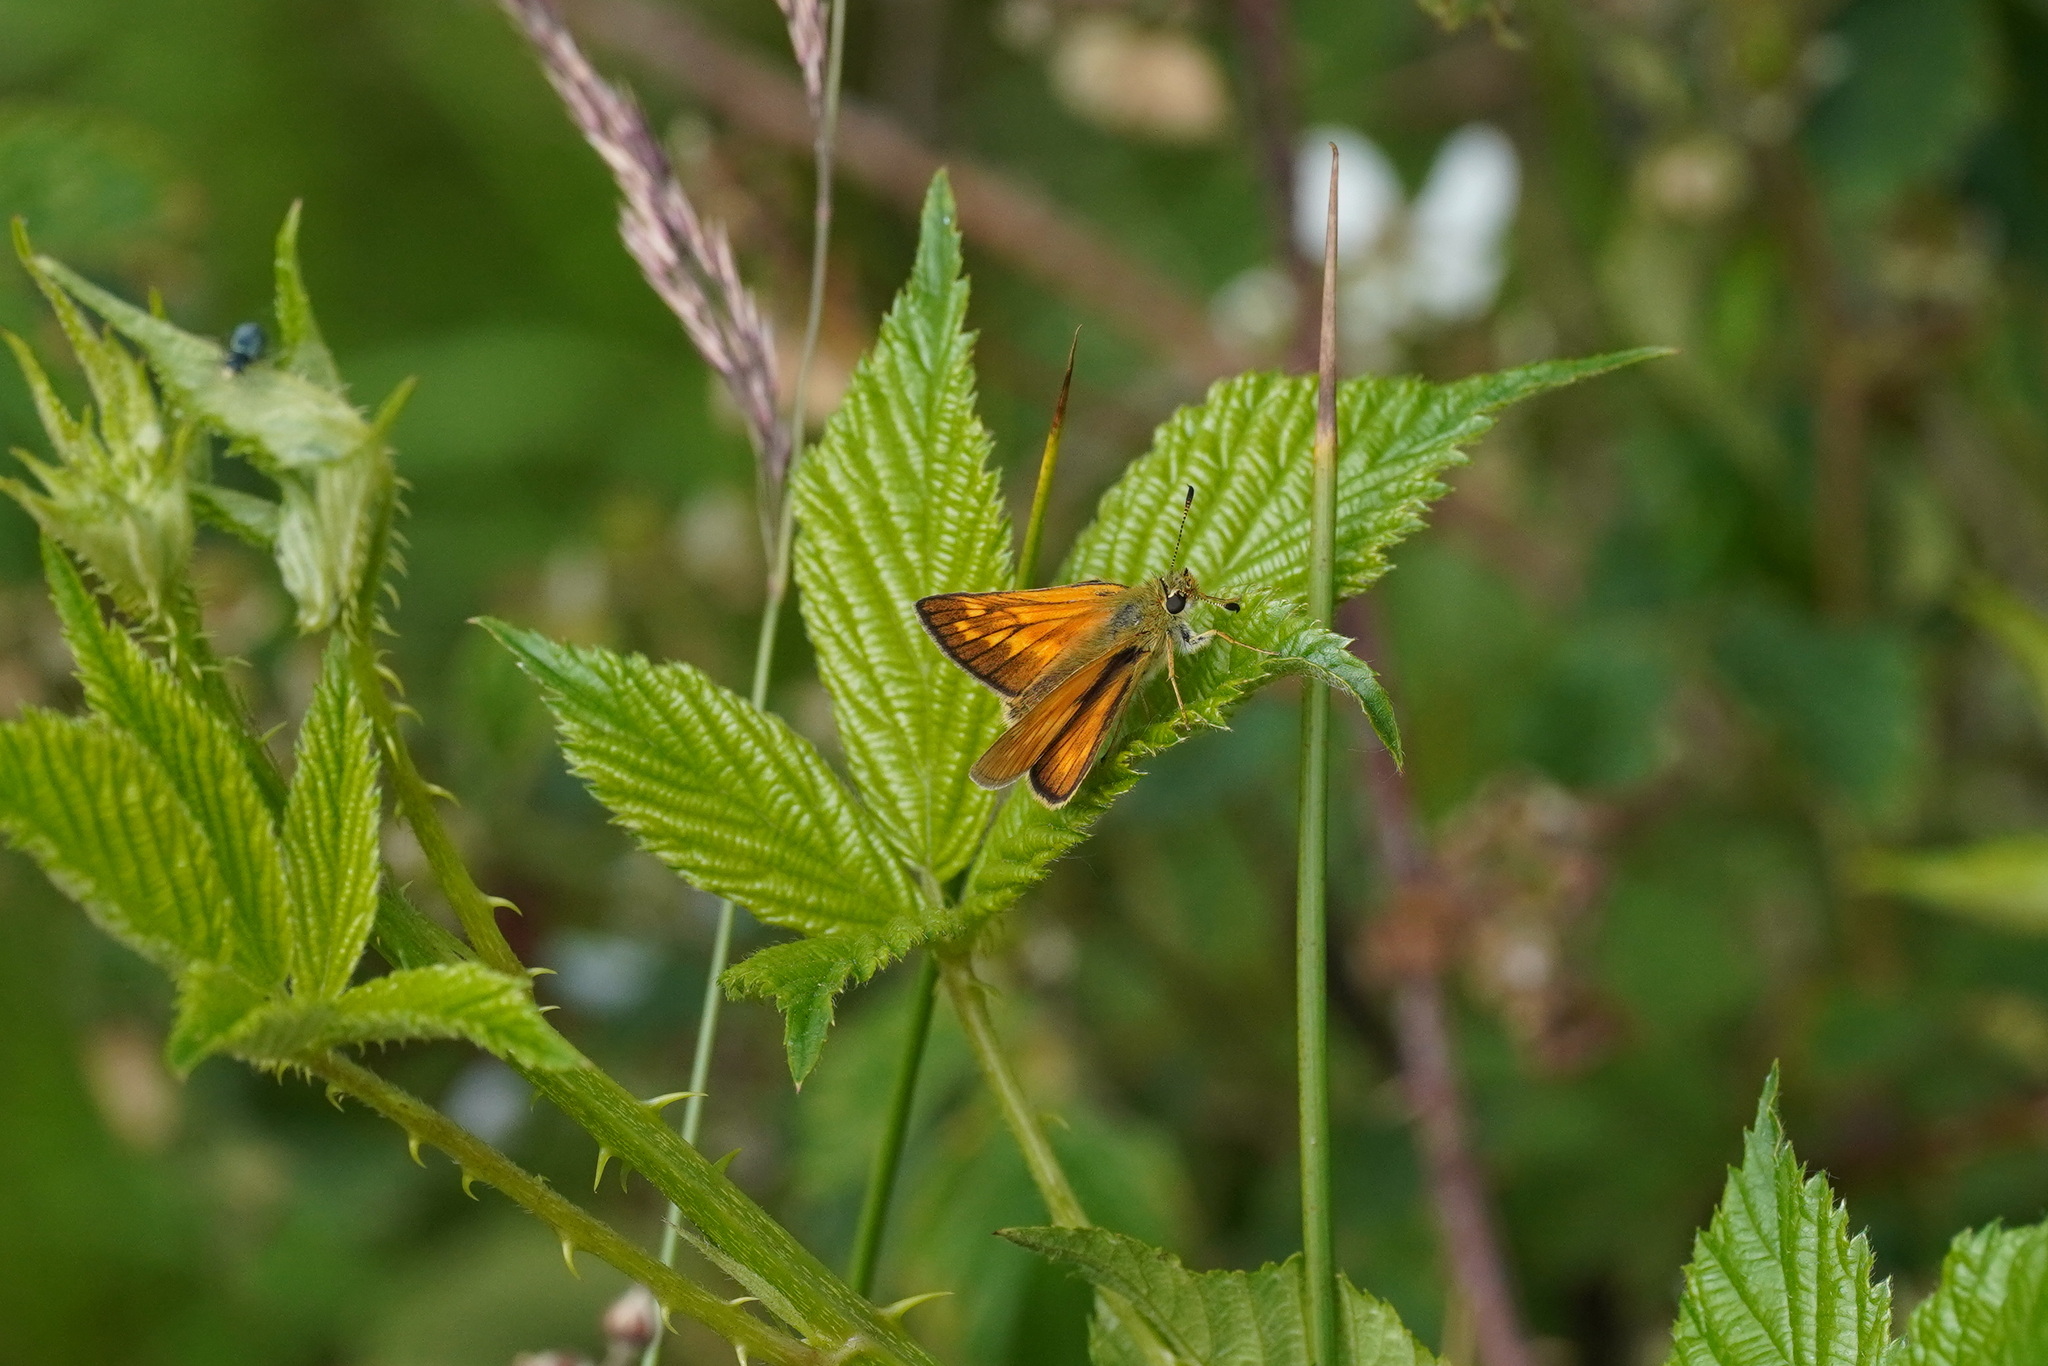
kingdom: Animalia
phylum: Arthropoda
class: Insecta
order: Lepidoptera
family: Hesperiidae
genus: Ochlodes
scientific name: Ochlodes venata
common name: Large skipper
